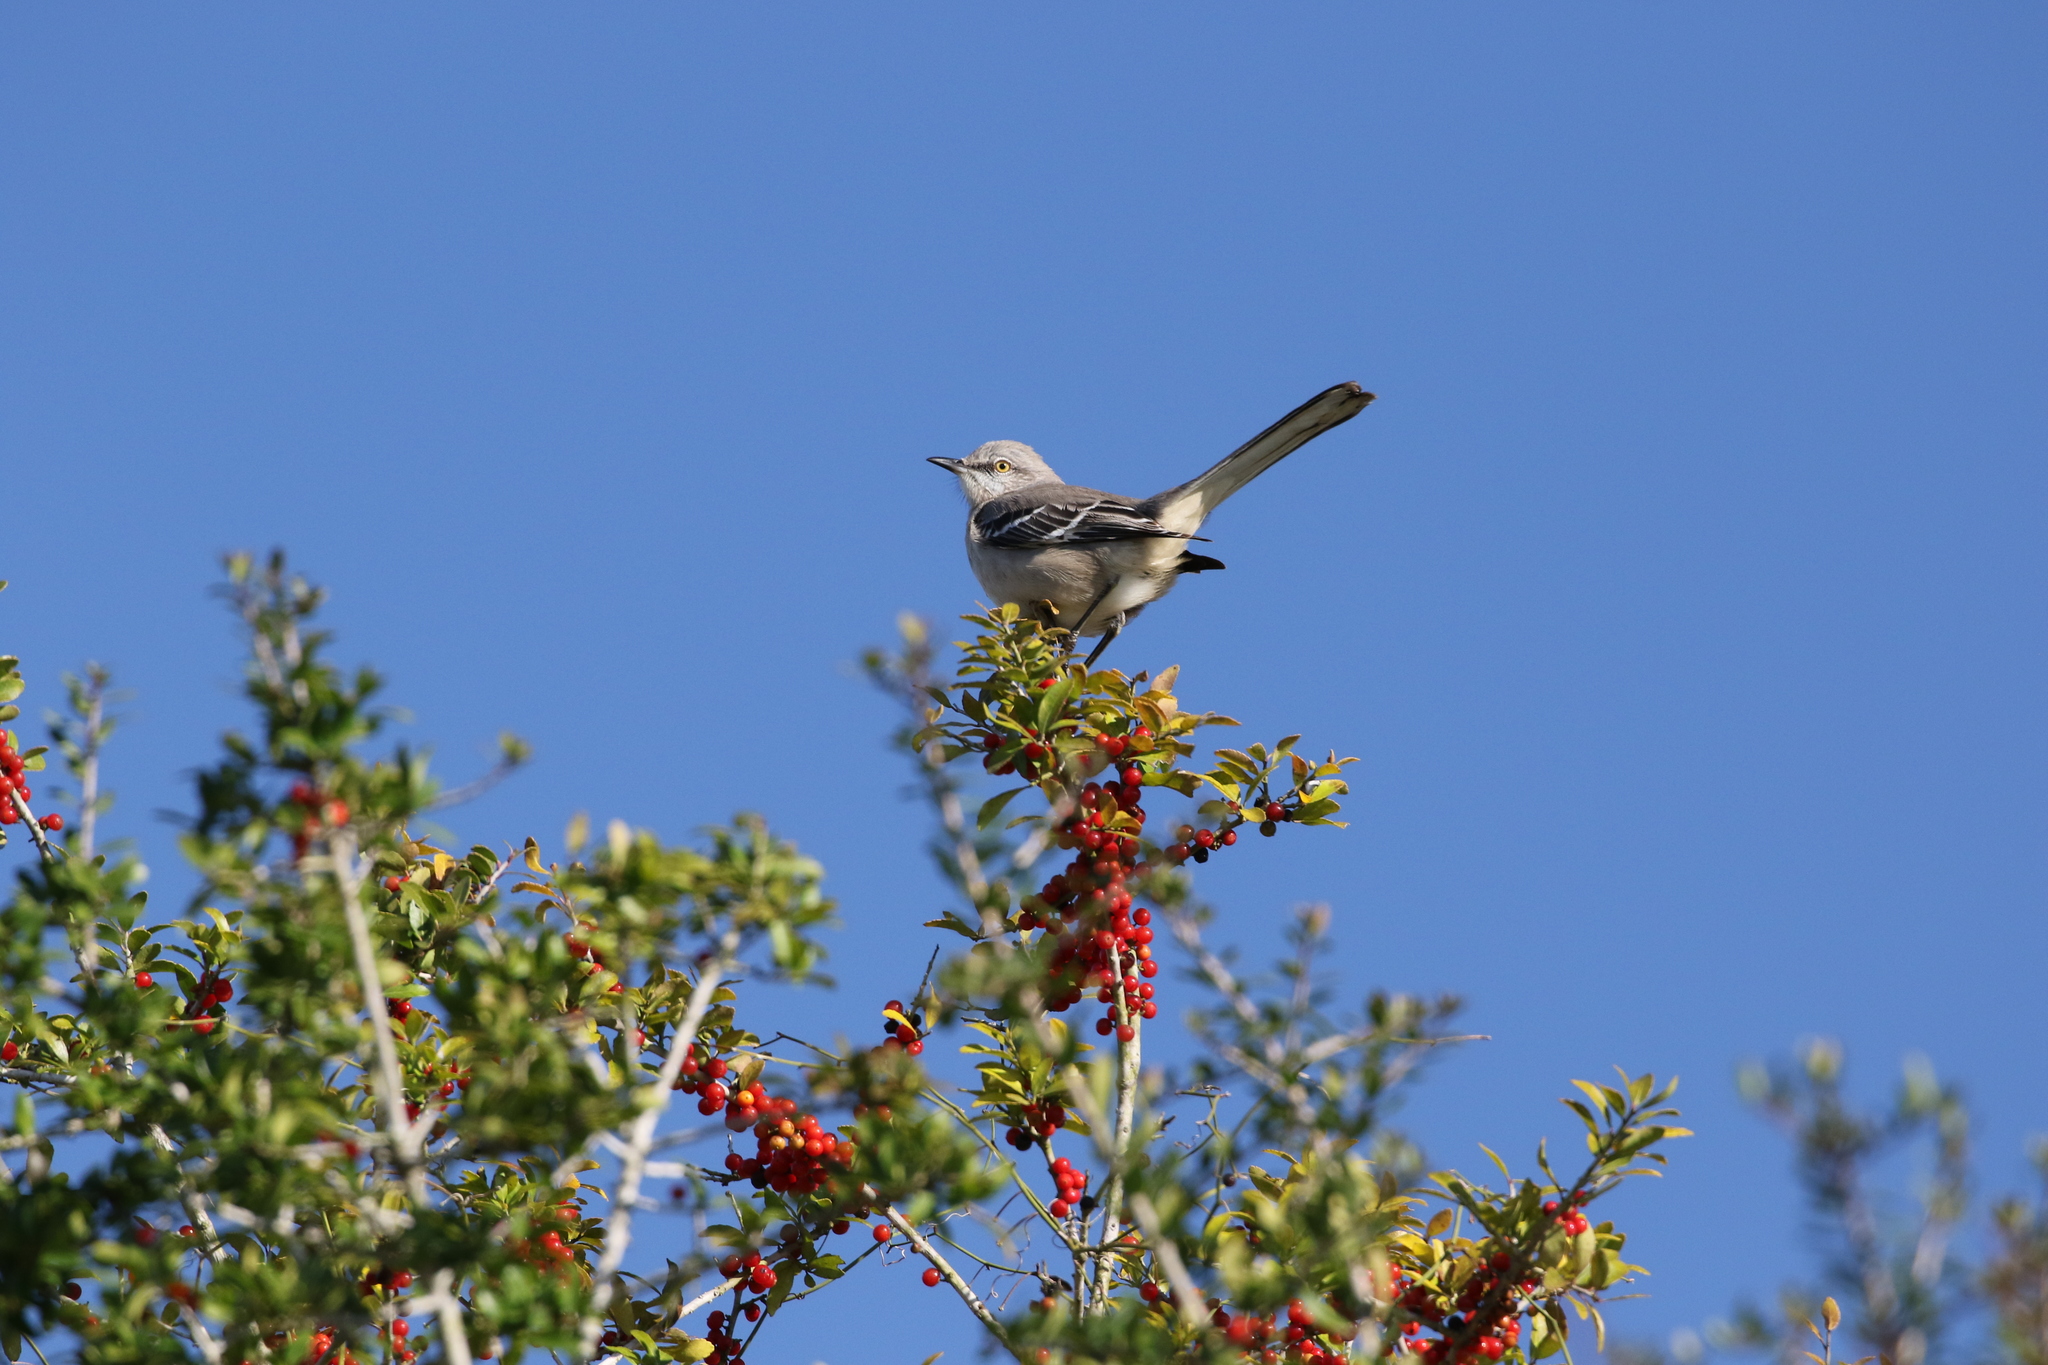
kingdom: Animalia
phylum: Chordata
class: Aves
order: Passeriformes
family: Mimidae
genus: Mimus
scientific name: Mimus polyglottos
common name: Northern mockingbird
